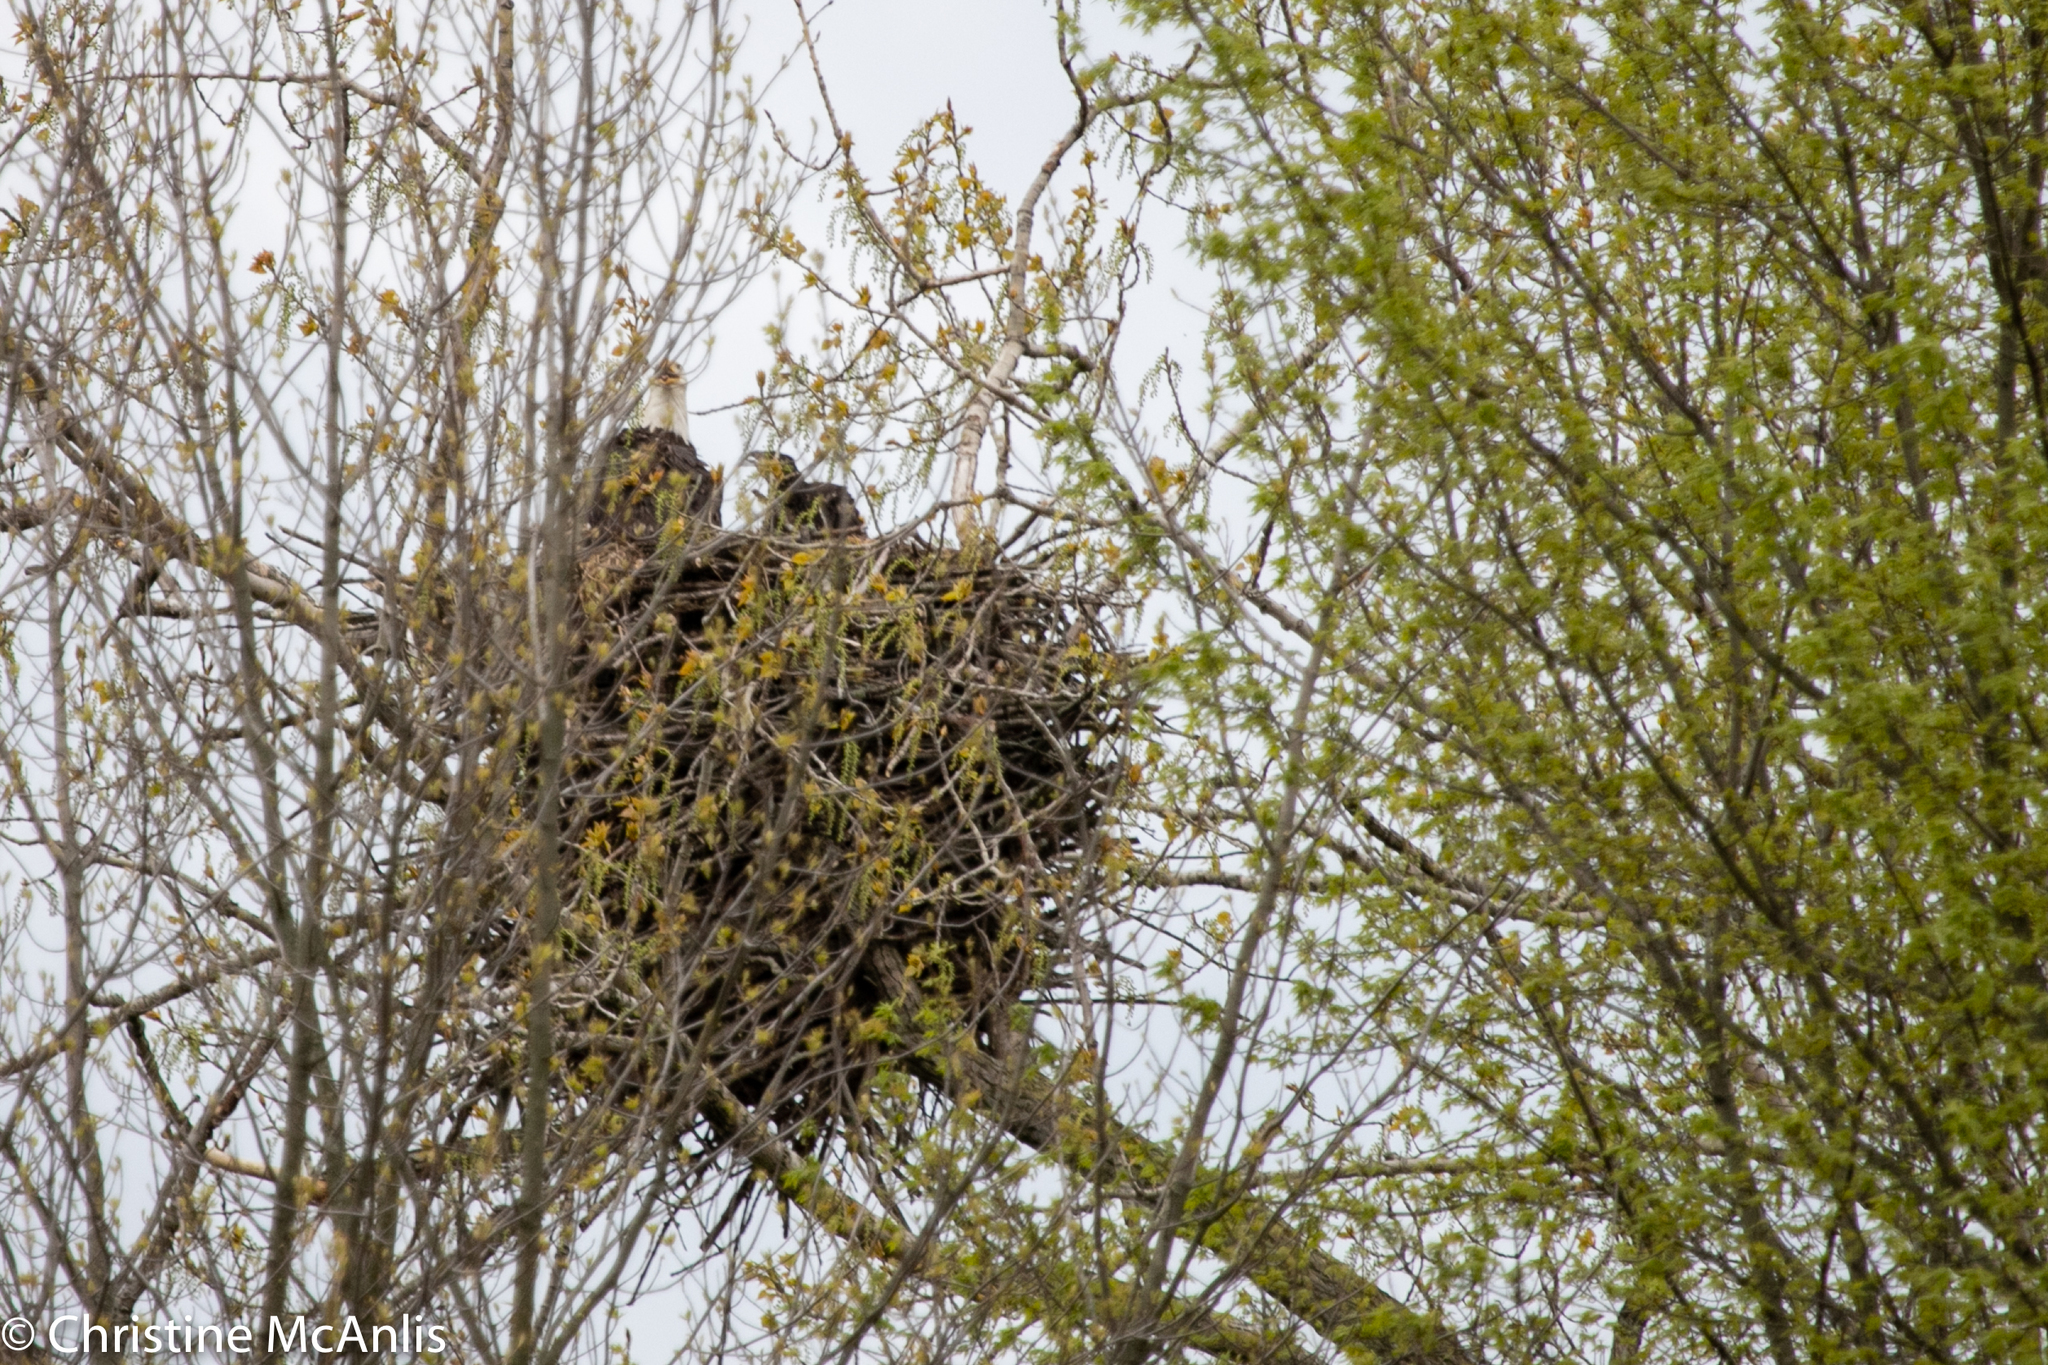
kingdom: Animalia
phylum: Chordata
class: Aves
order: Accipitriformes
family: Accipitridae
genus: Haliaeetus
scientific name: Haliaeetus leucocephalus
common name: Bald eagle
